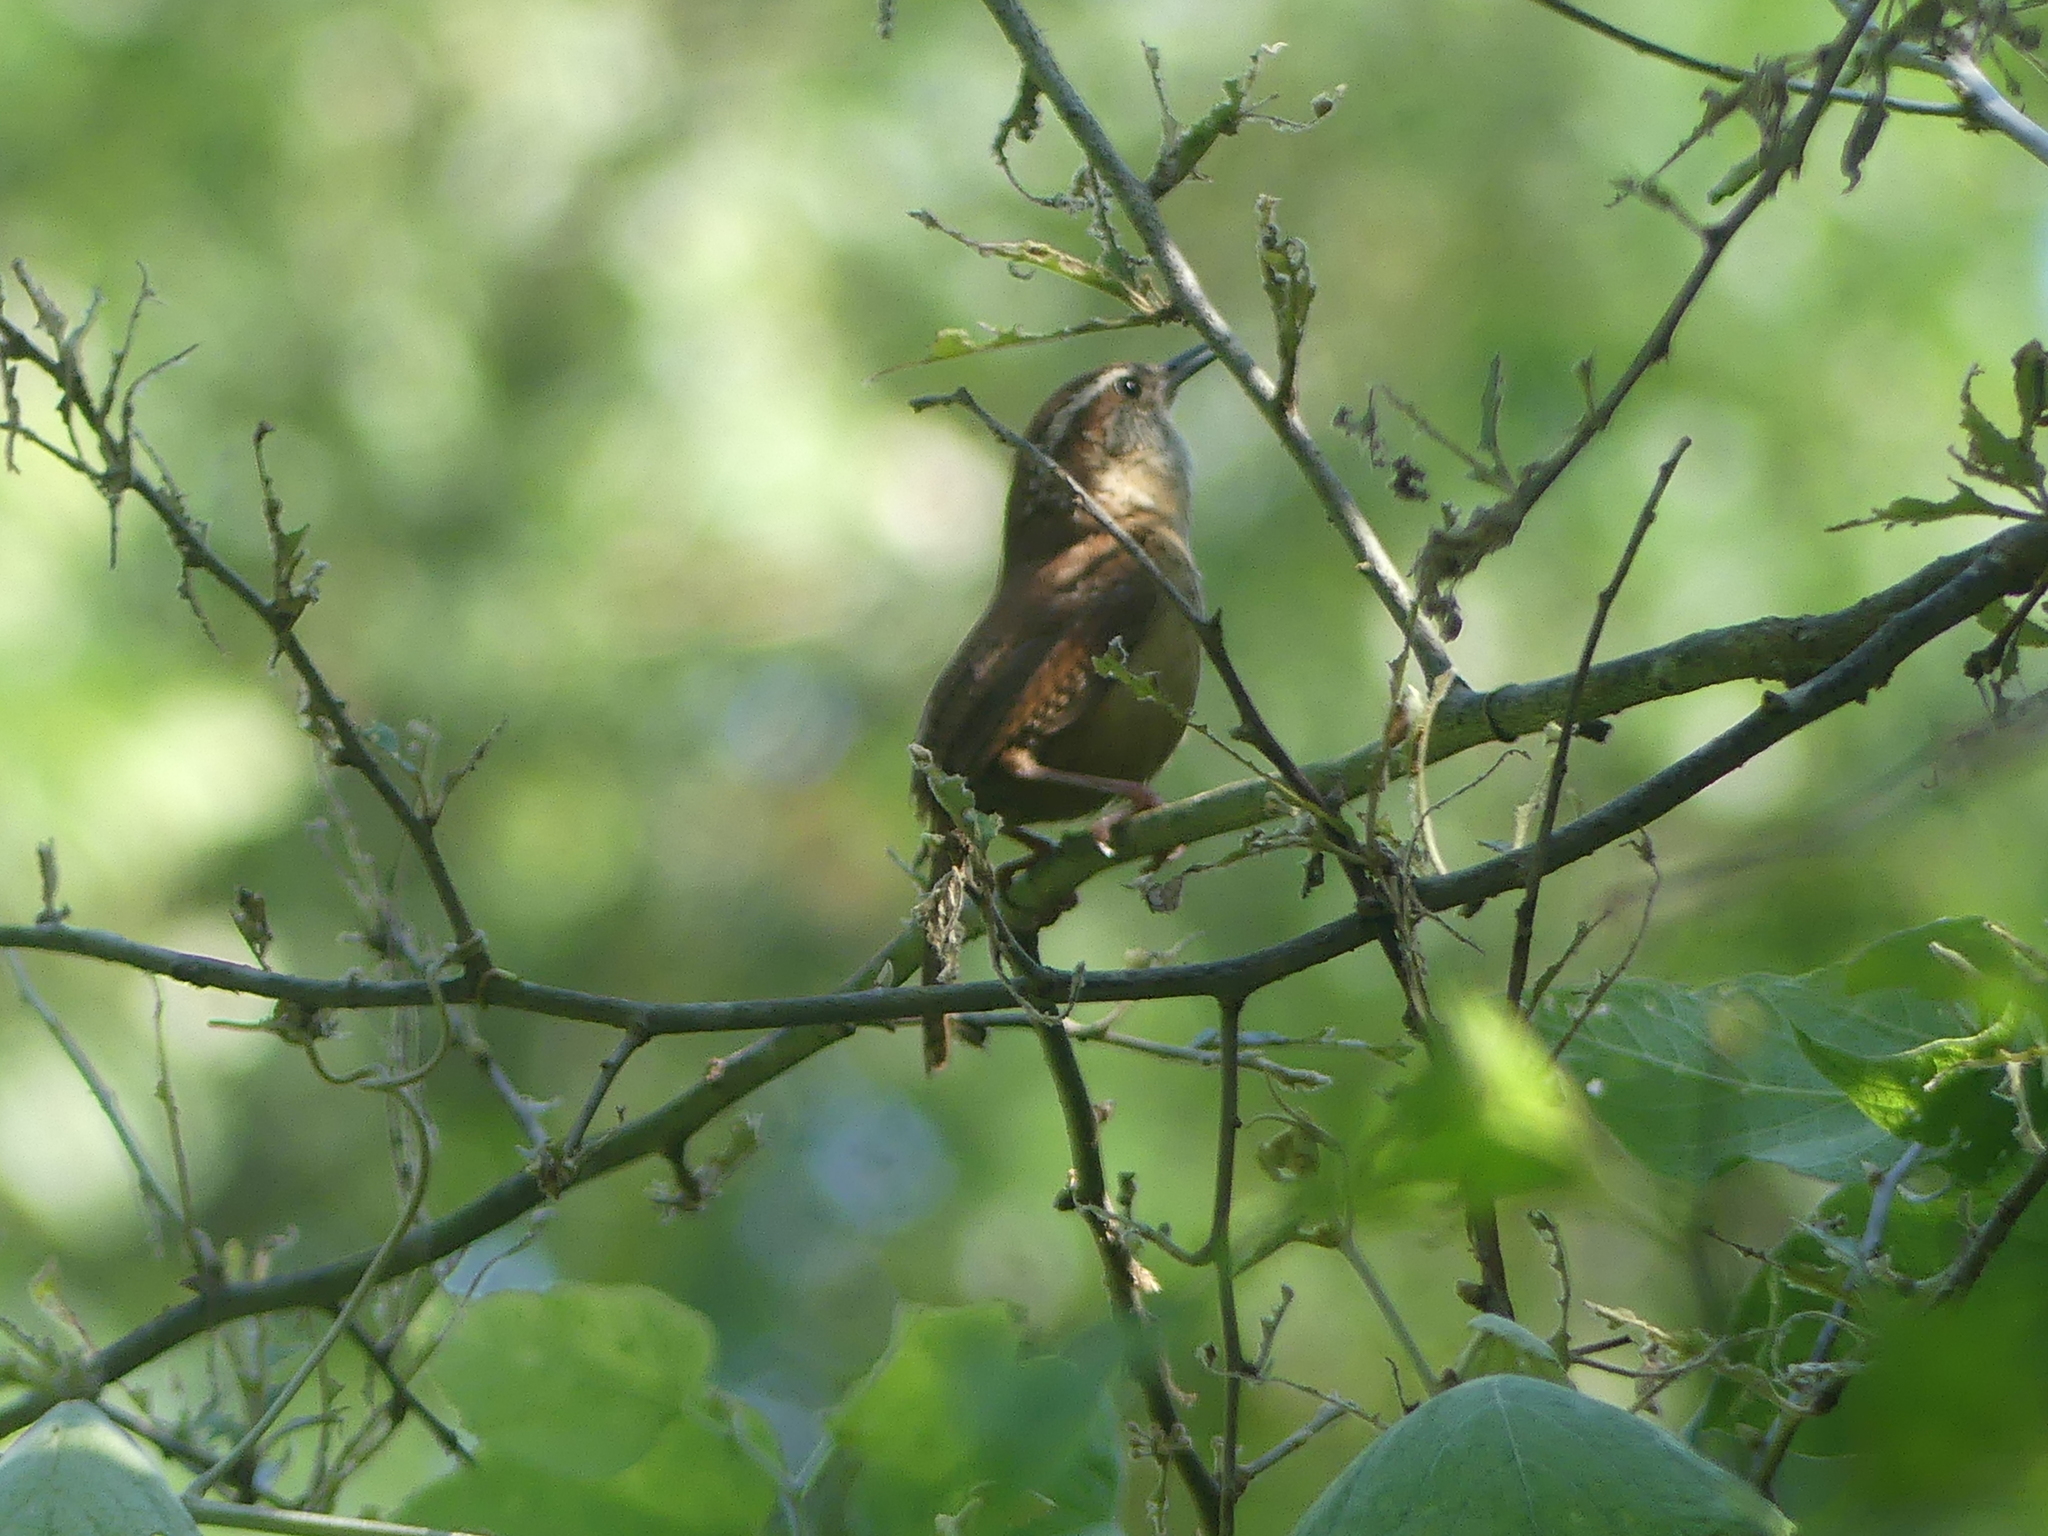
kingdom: Animalia
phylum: Chordata
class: Aves
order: Passeriformes
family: Troglodytidae
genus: Thryothorus
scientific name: Thryothorus ludovicianus
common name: Carolina wren
